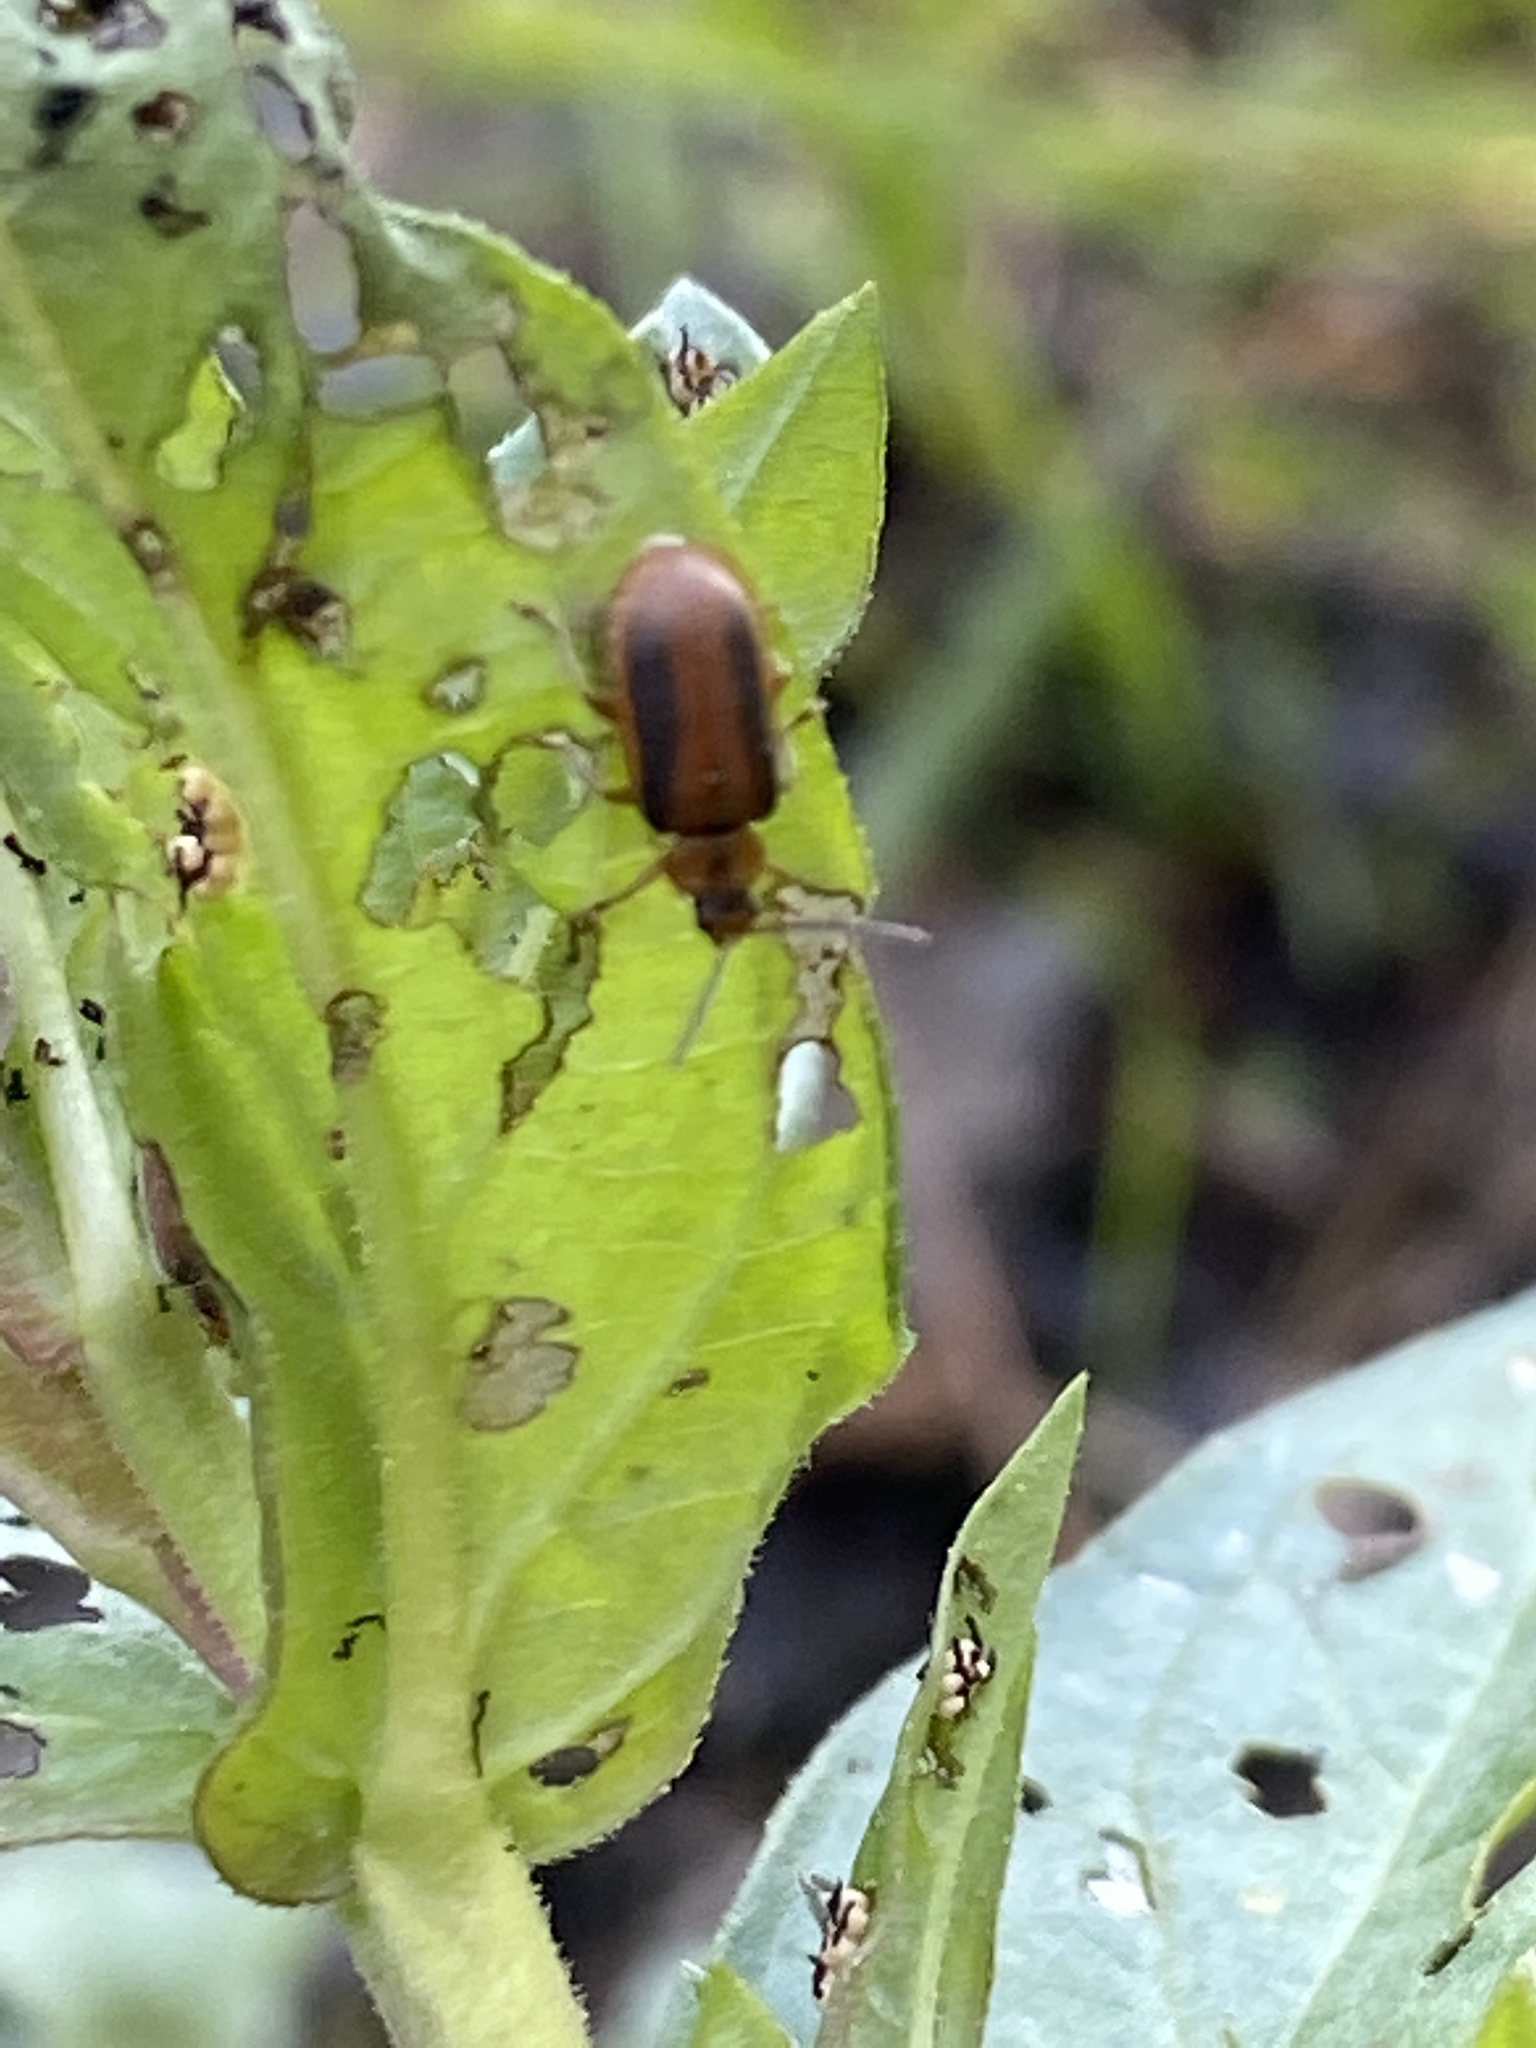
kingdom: Animalia
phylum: Arthropoda
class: Insecta
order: Coleoptera
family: Chrysomelidae
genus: Neogalerucella
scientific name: Neogalerucella calmariensis
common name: Black-margined loosestrife beetle
